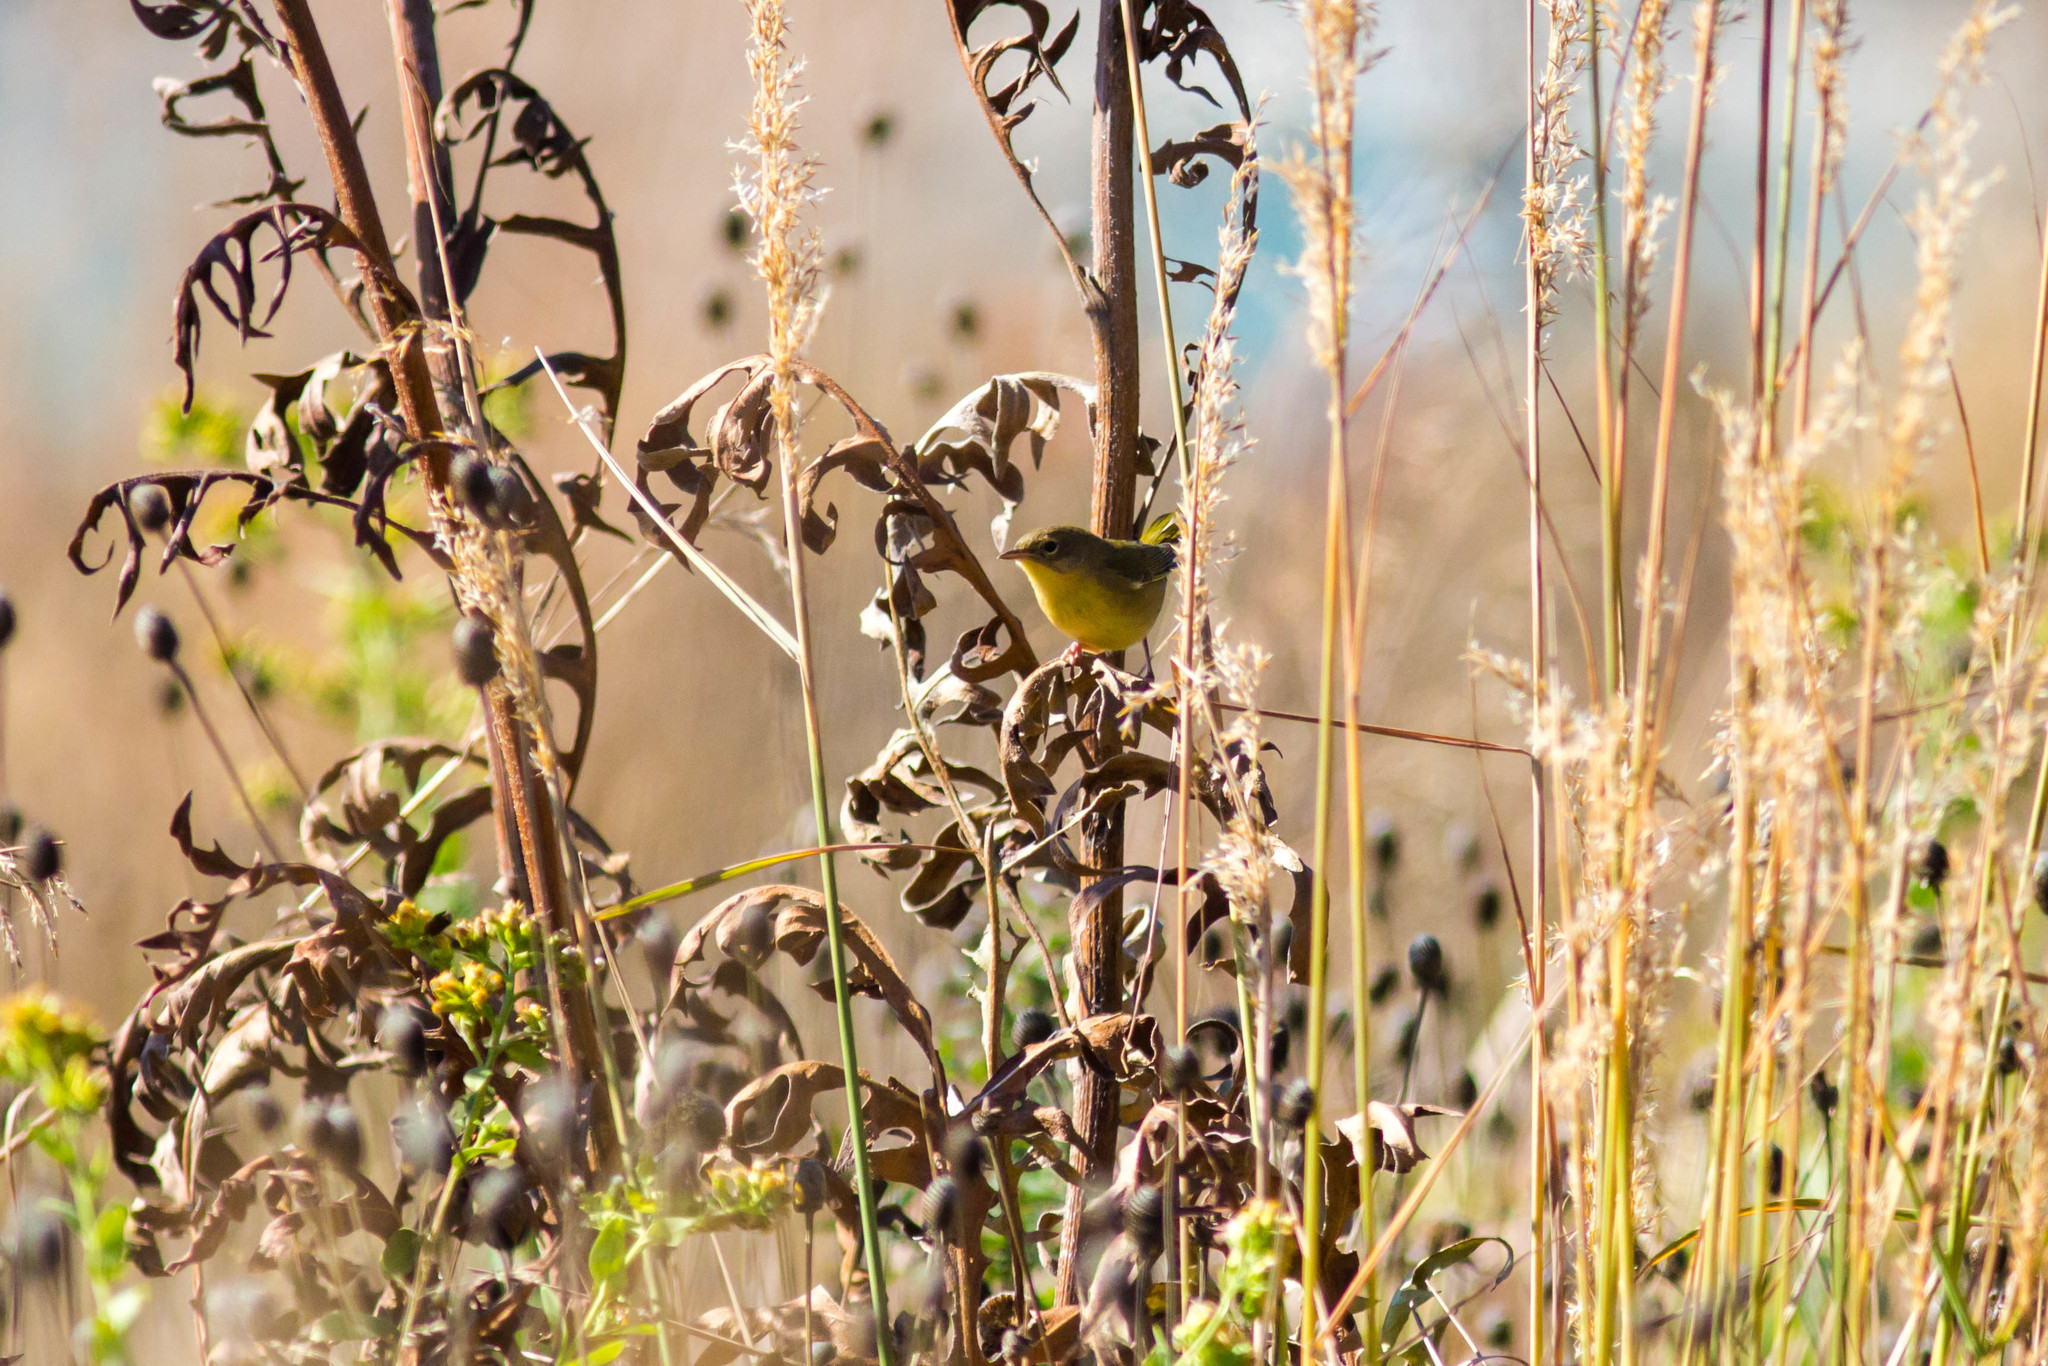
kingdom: Animalia
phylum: Chordata
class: Aves
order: Passeriformes
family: Parulidae
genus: Geothlypis
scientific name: Geothlypis trichas
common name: Common yellowthroat
